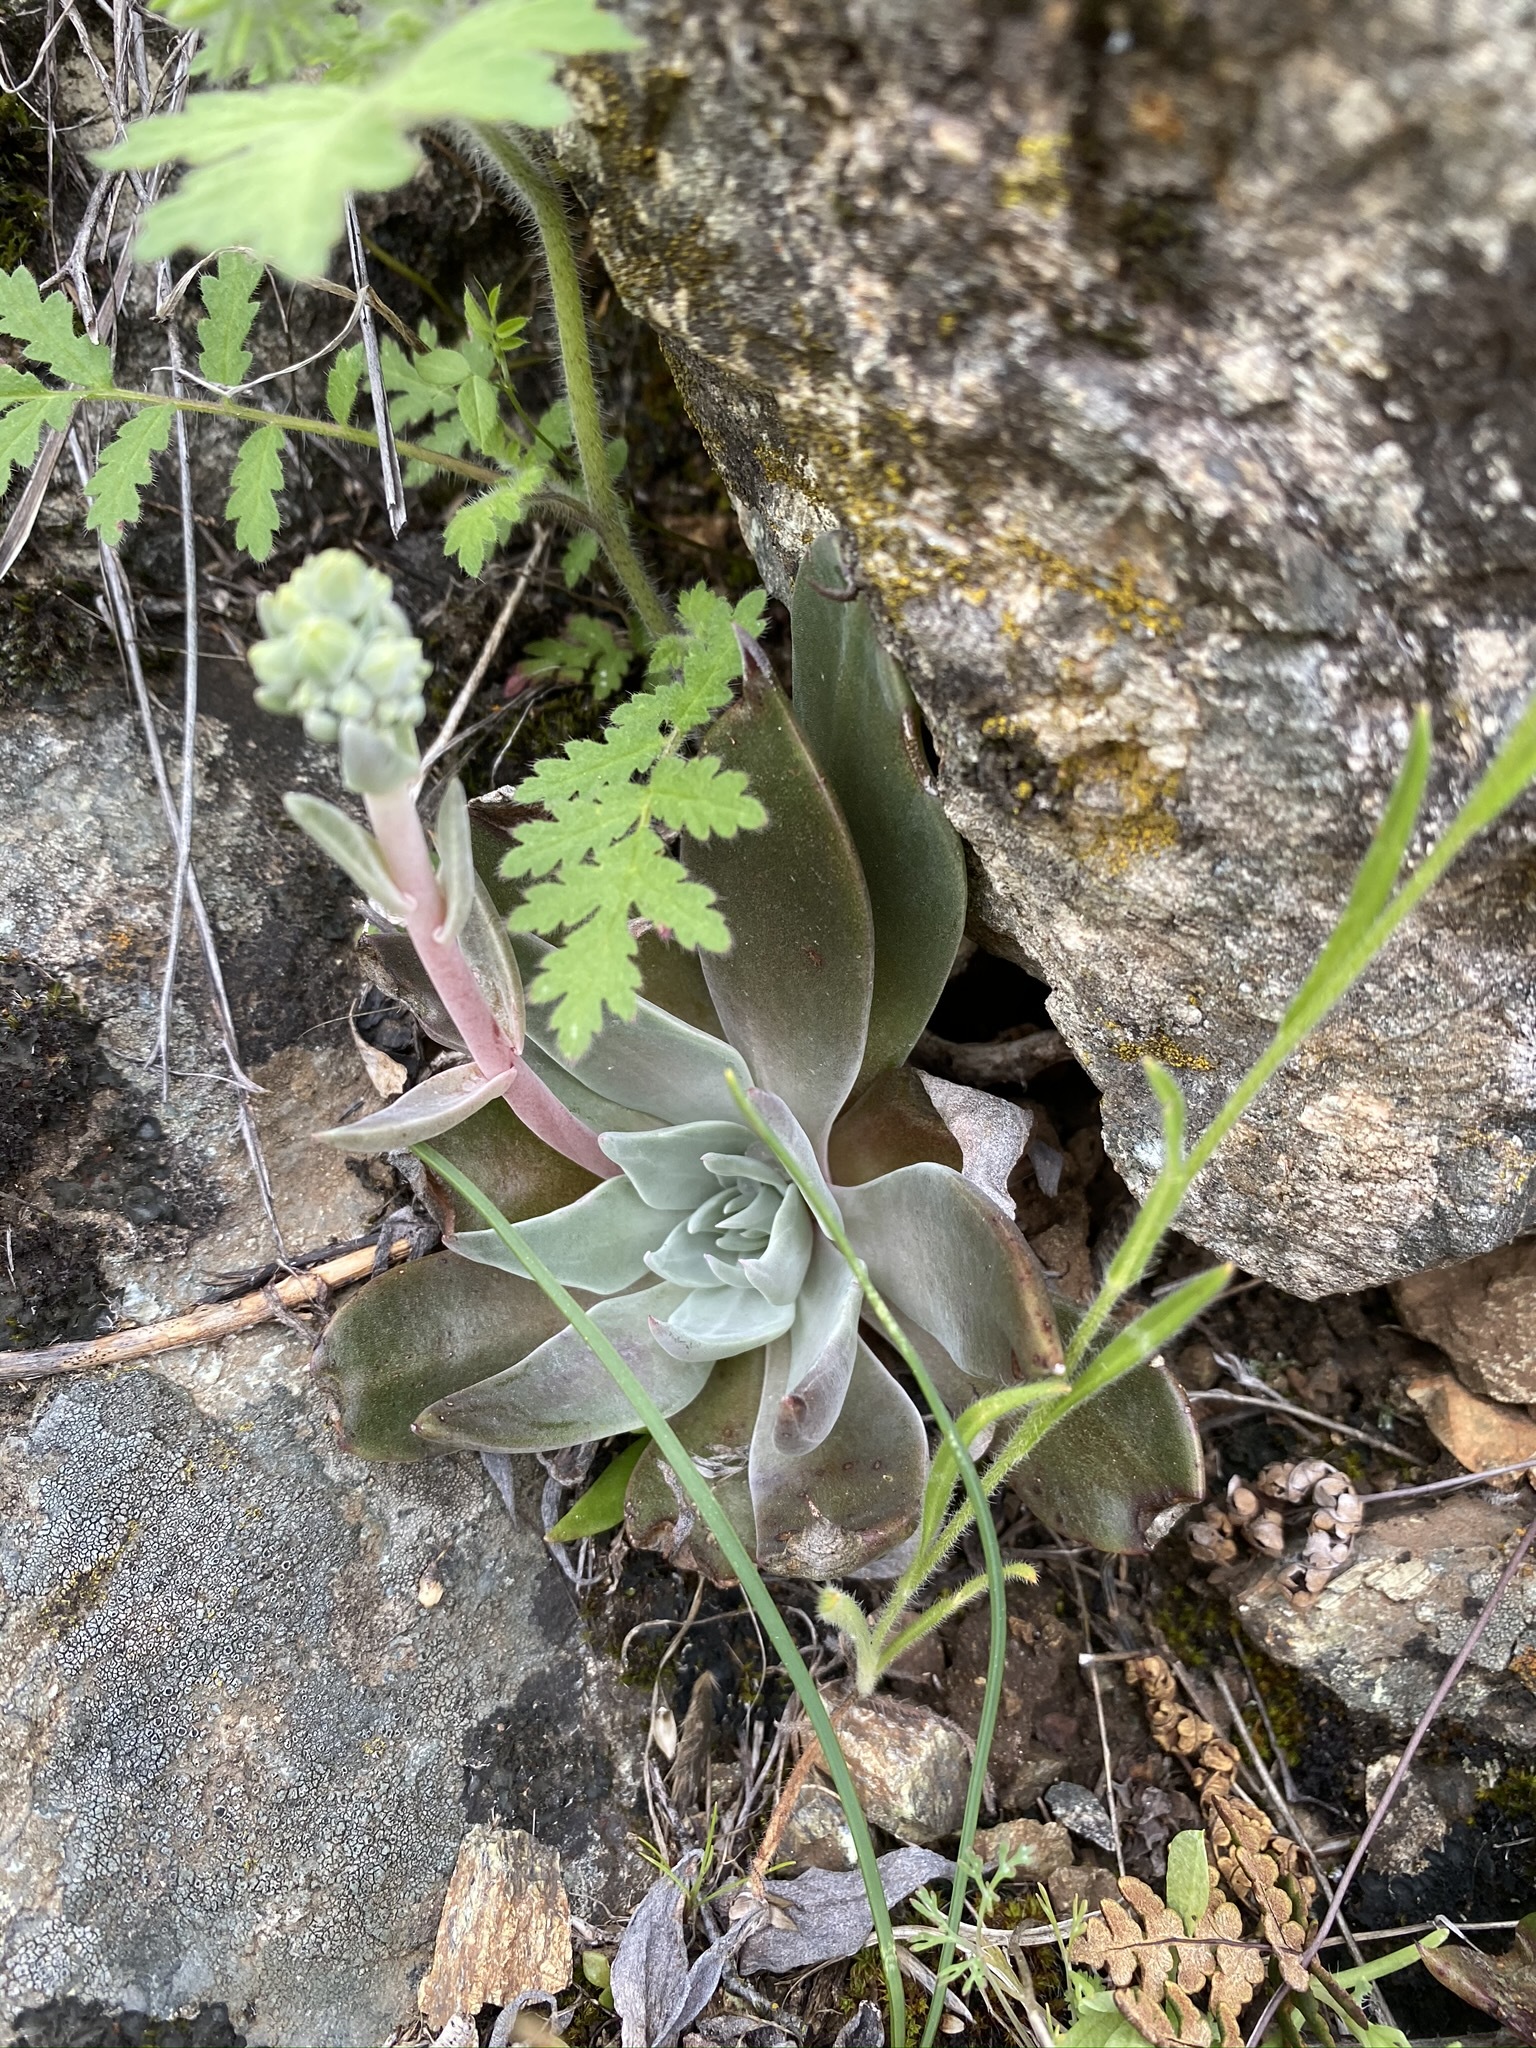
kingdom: Plantae
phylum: Tracheophyta
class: Magnoliopsida
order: Saxifragales
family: Crassulaceae
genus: Dudleya
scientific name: Dudleya cymosa
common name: Canyon dudleya
